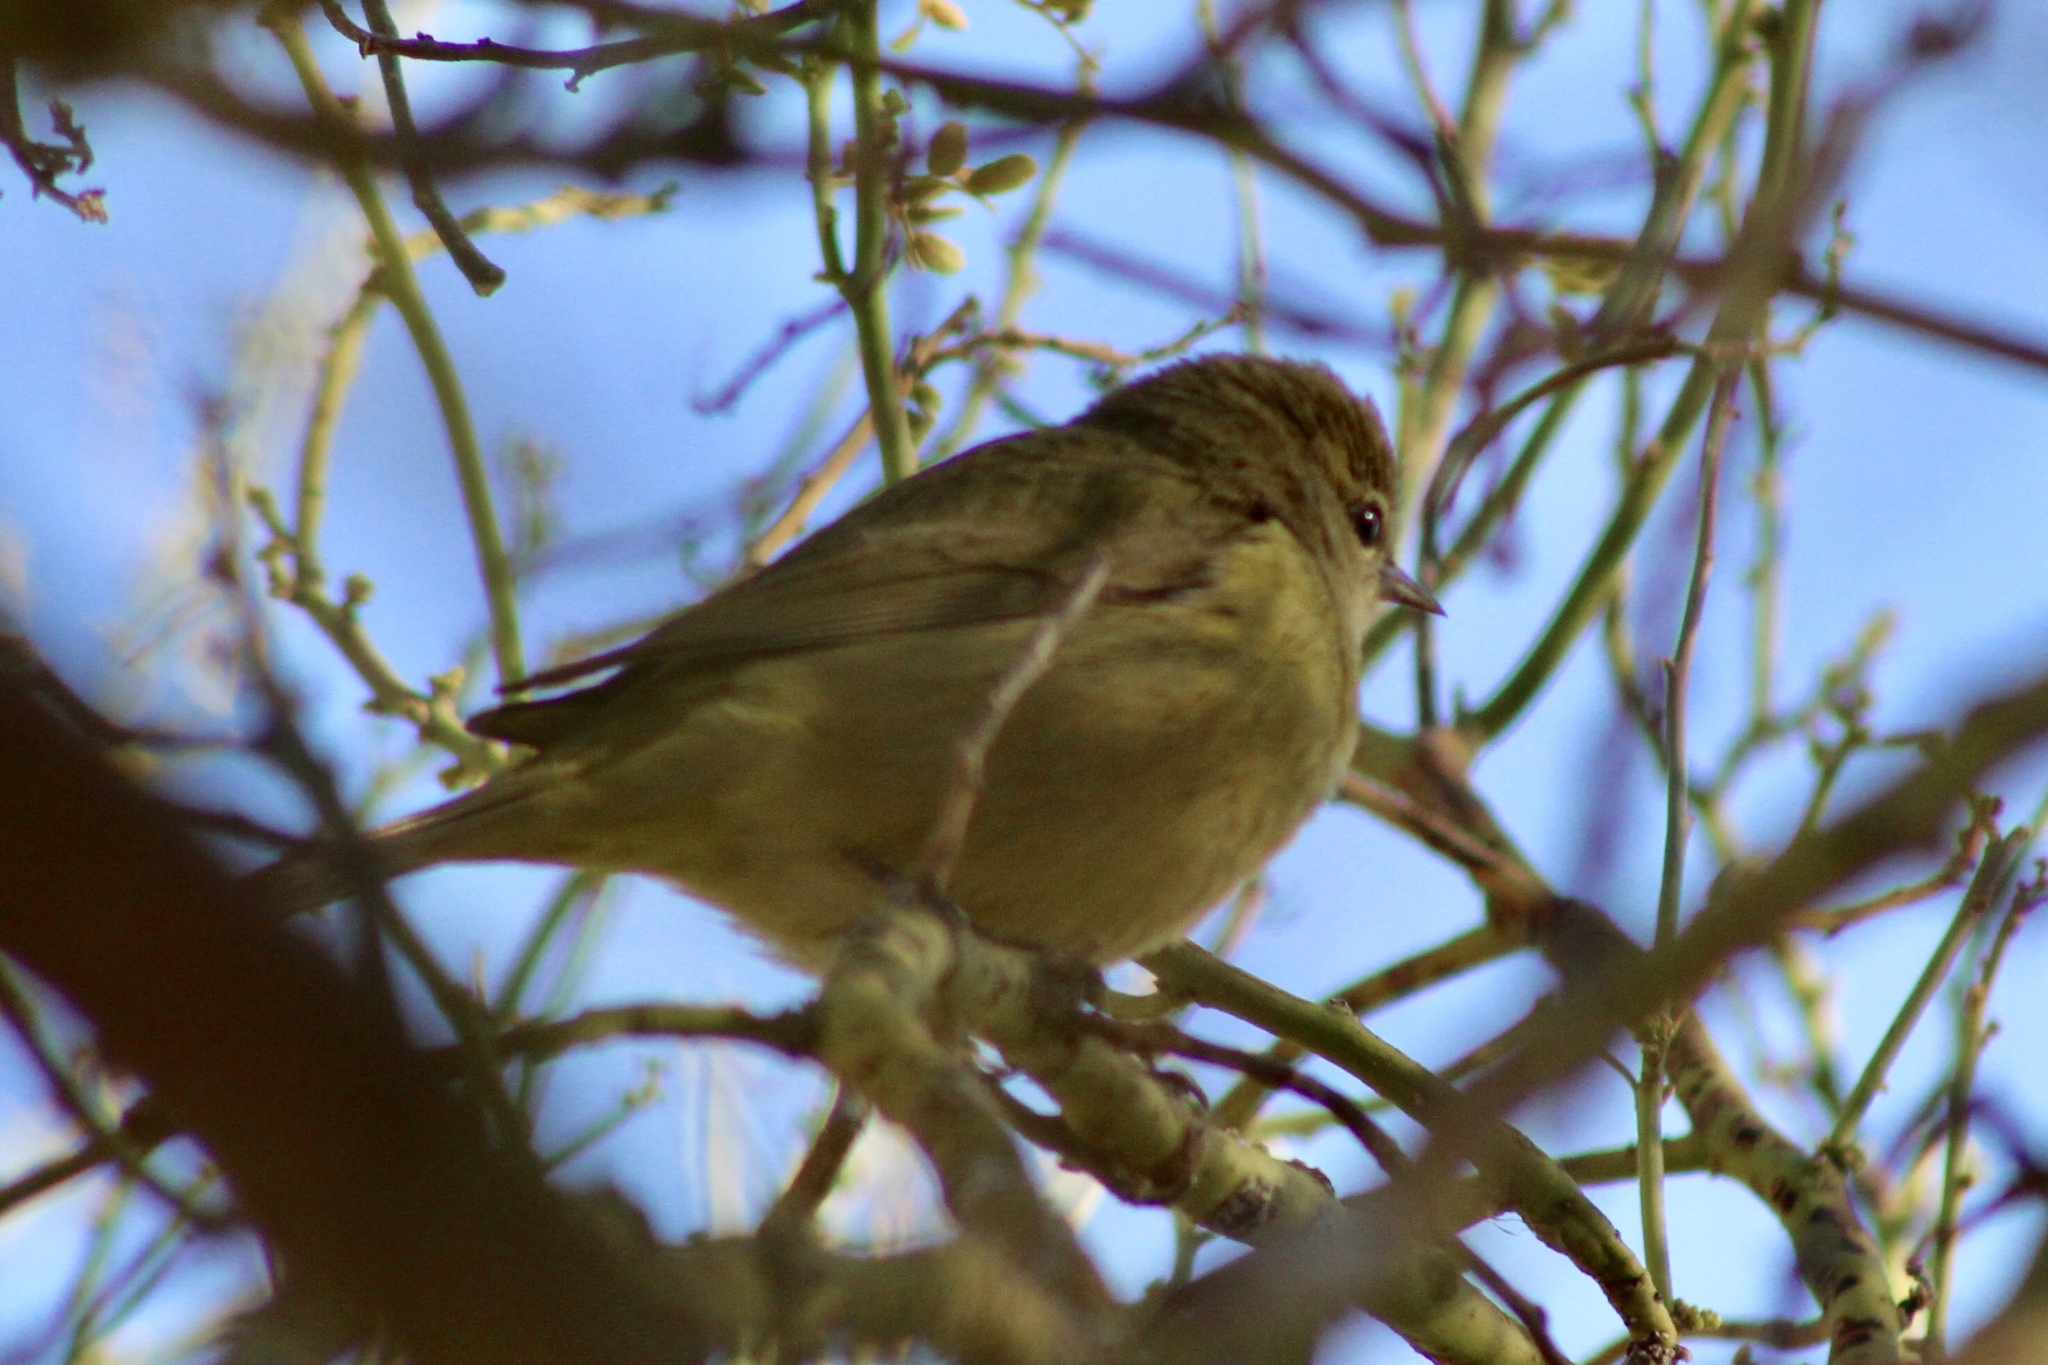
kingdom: Animalia
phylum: Chordata
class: Aves
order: Passeriformes
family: Parulidae
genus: Leiothlypis
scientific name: Leiothlypis celata
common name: Orange-crowned warbler
